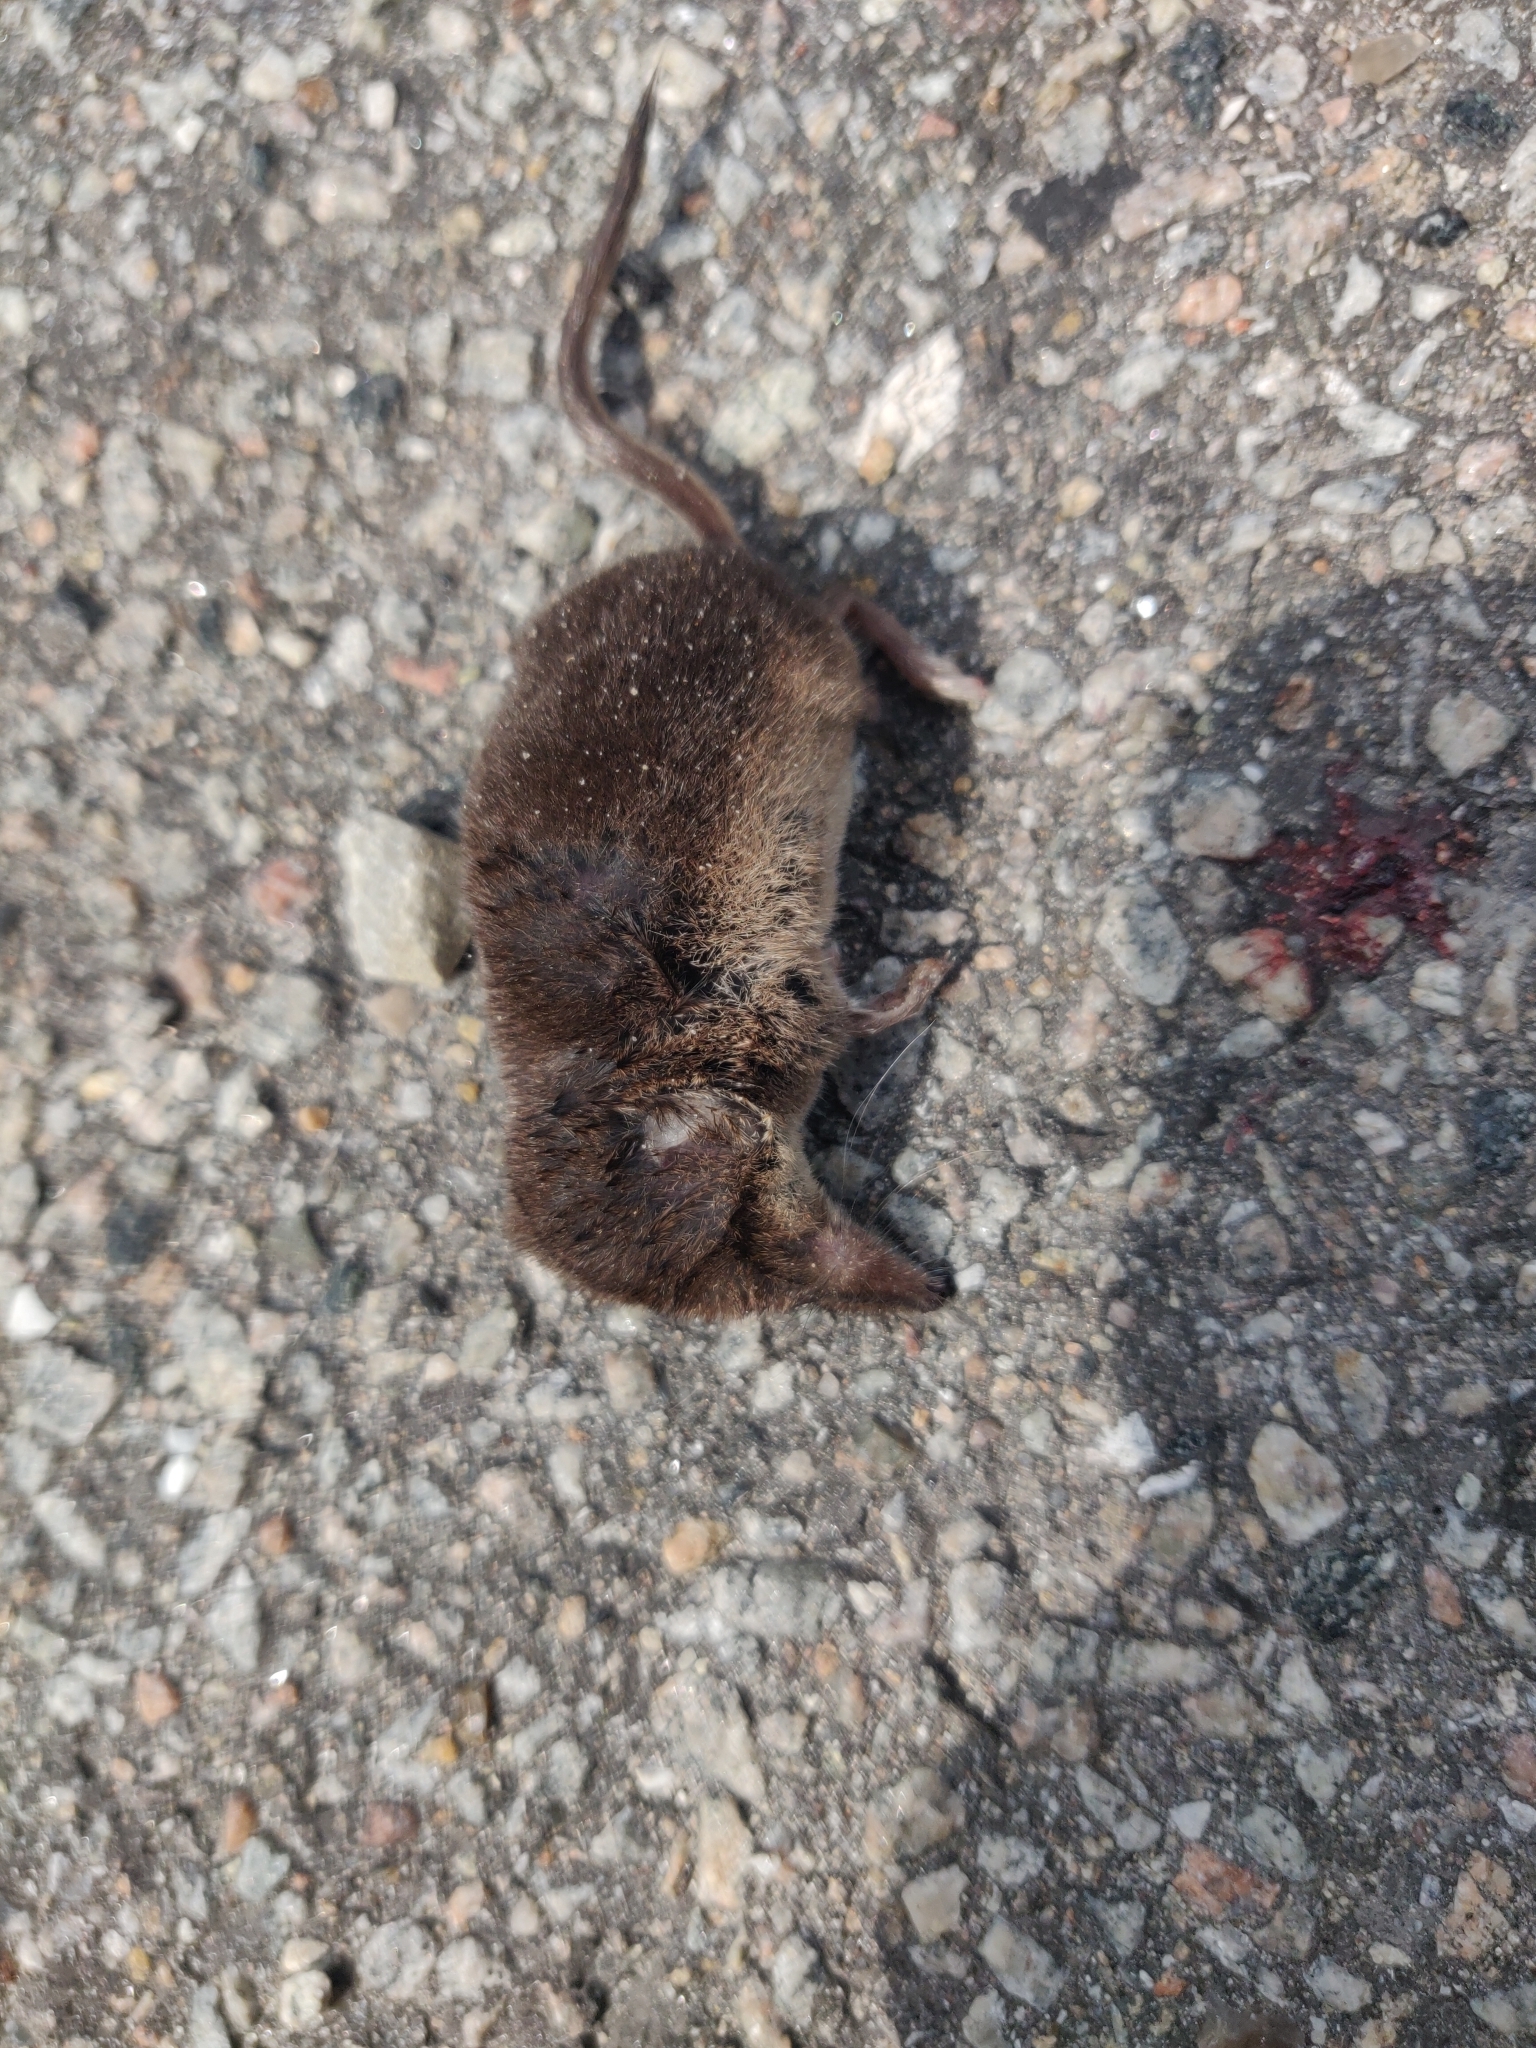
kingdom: Animalia
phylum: Chordata
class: Mammalia
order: Soricomorpha
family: Soricidae
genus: Sorex
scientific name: Sorex araneus
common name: Common shrew
